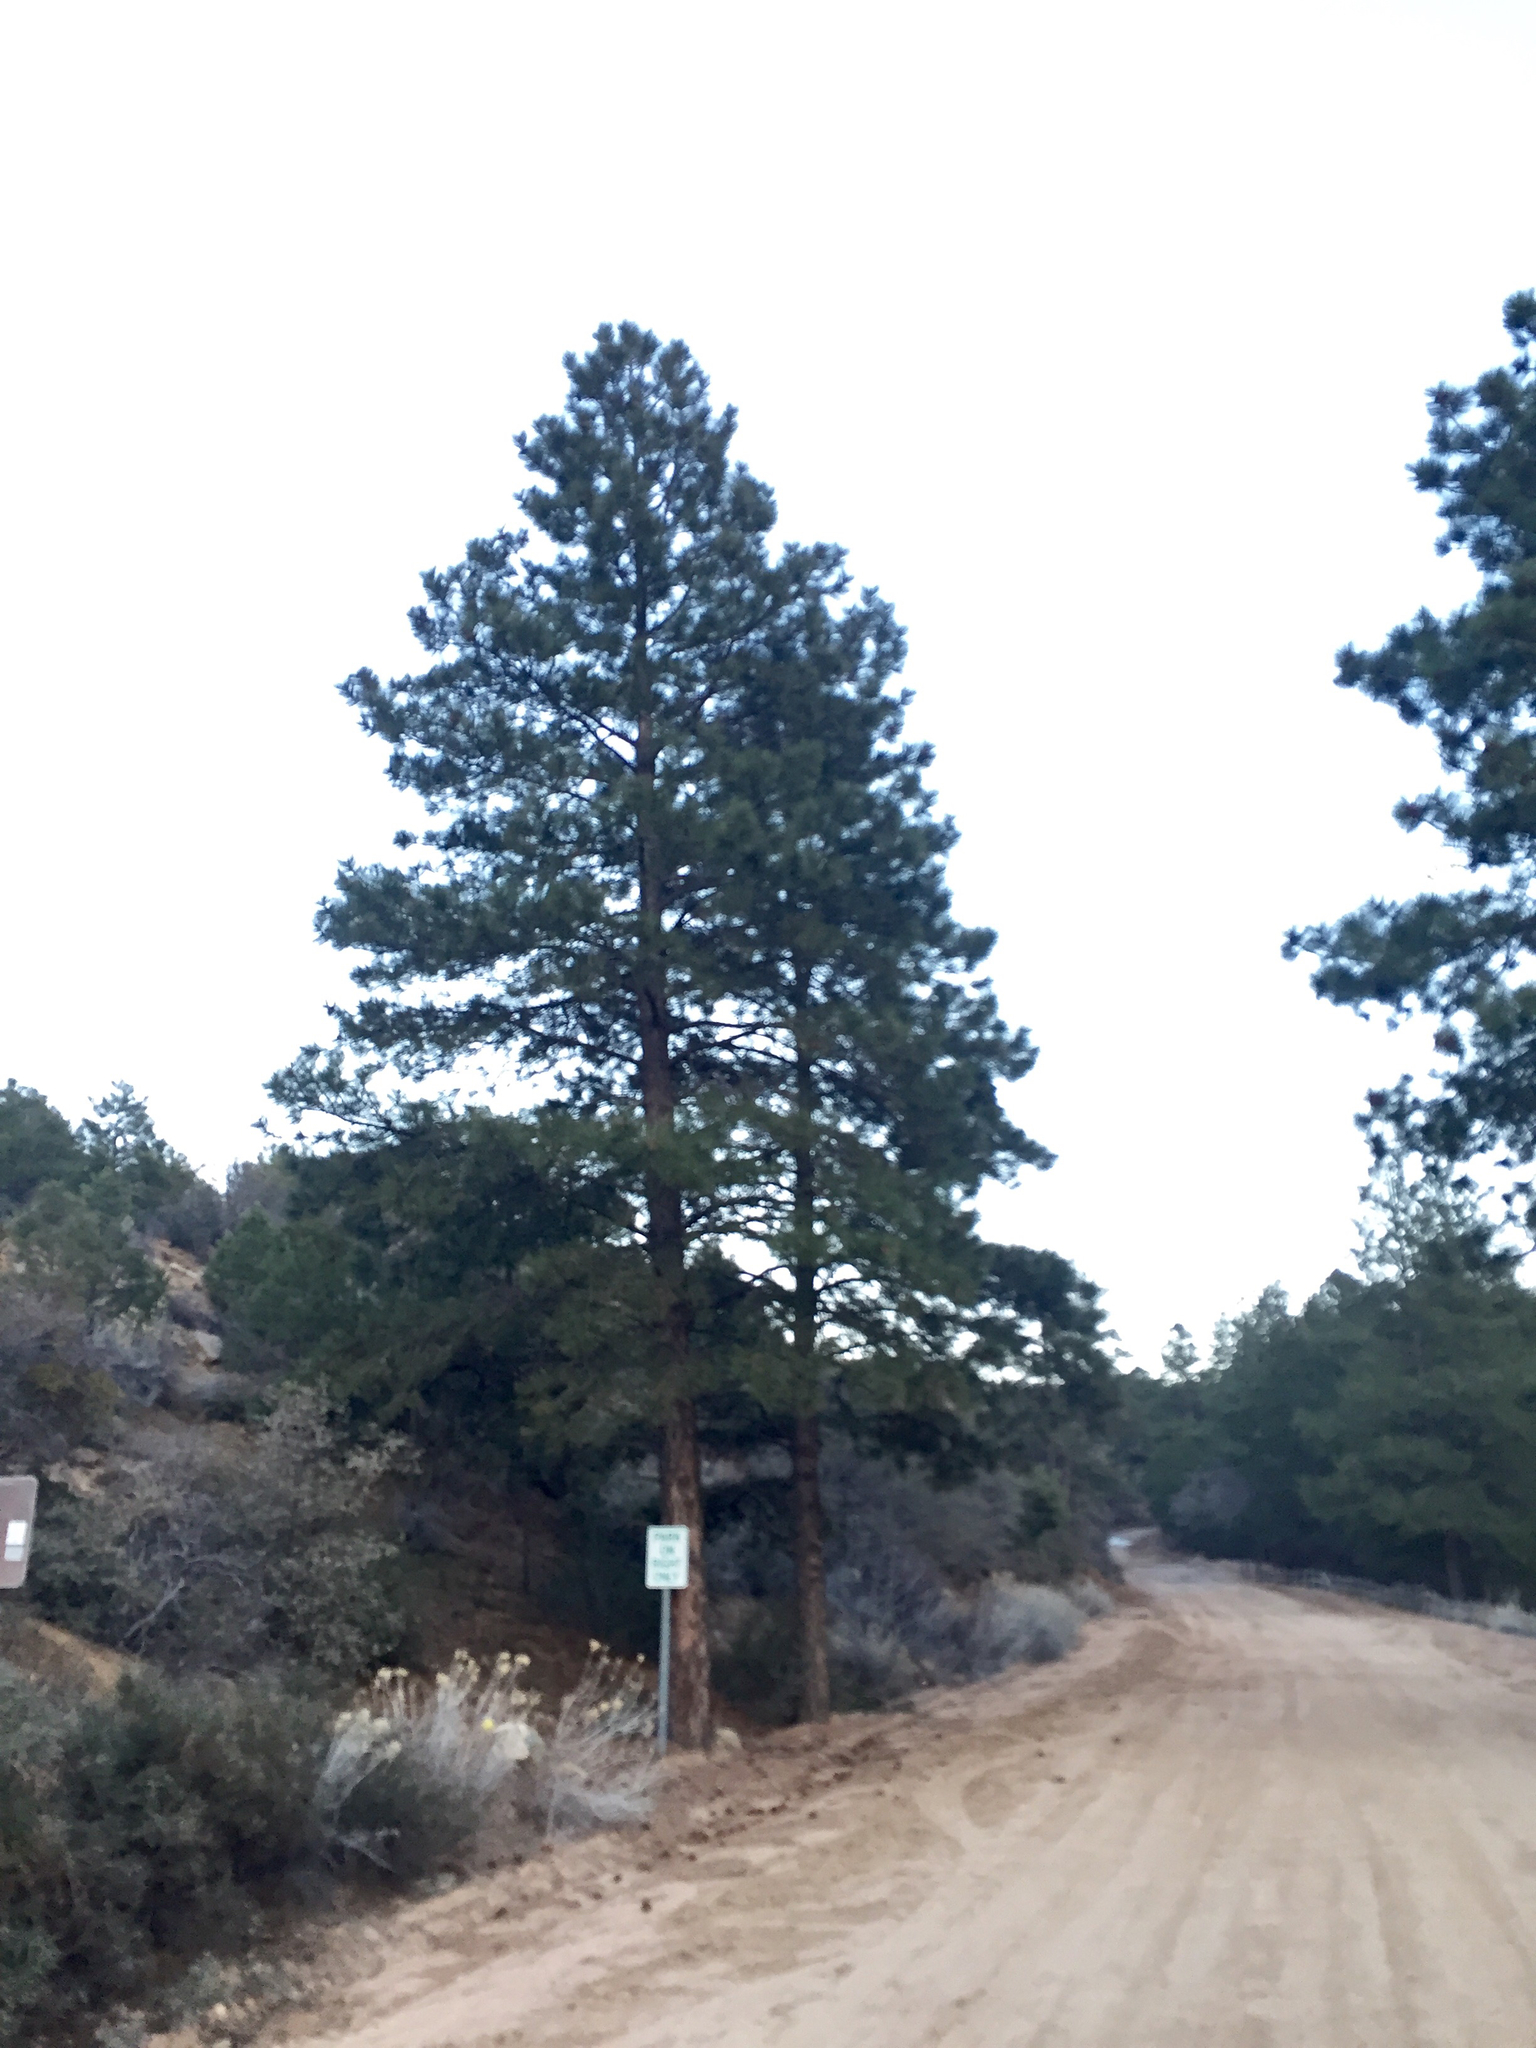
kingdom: Plantae
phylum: Tracheophyta
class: Pinopsida
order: Pinales
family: Pinaceae
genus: Pinus
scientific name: Pinus ponderosa
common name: Western yellow-pine
